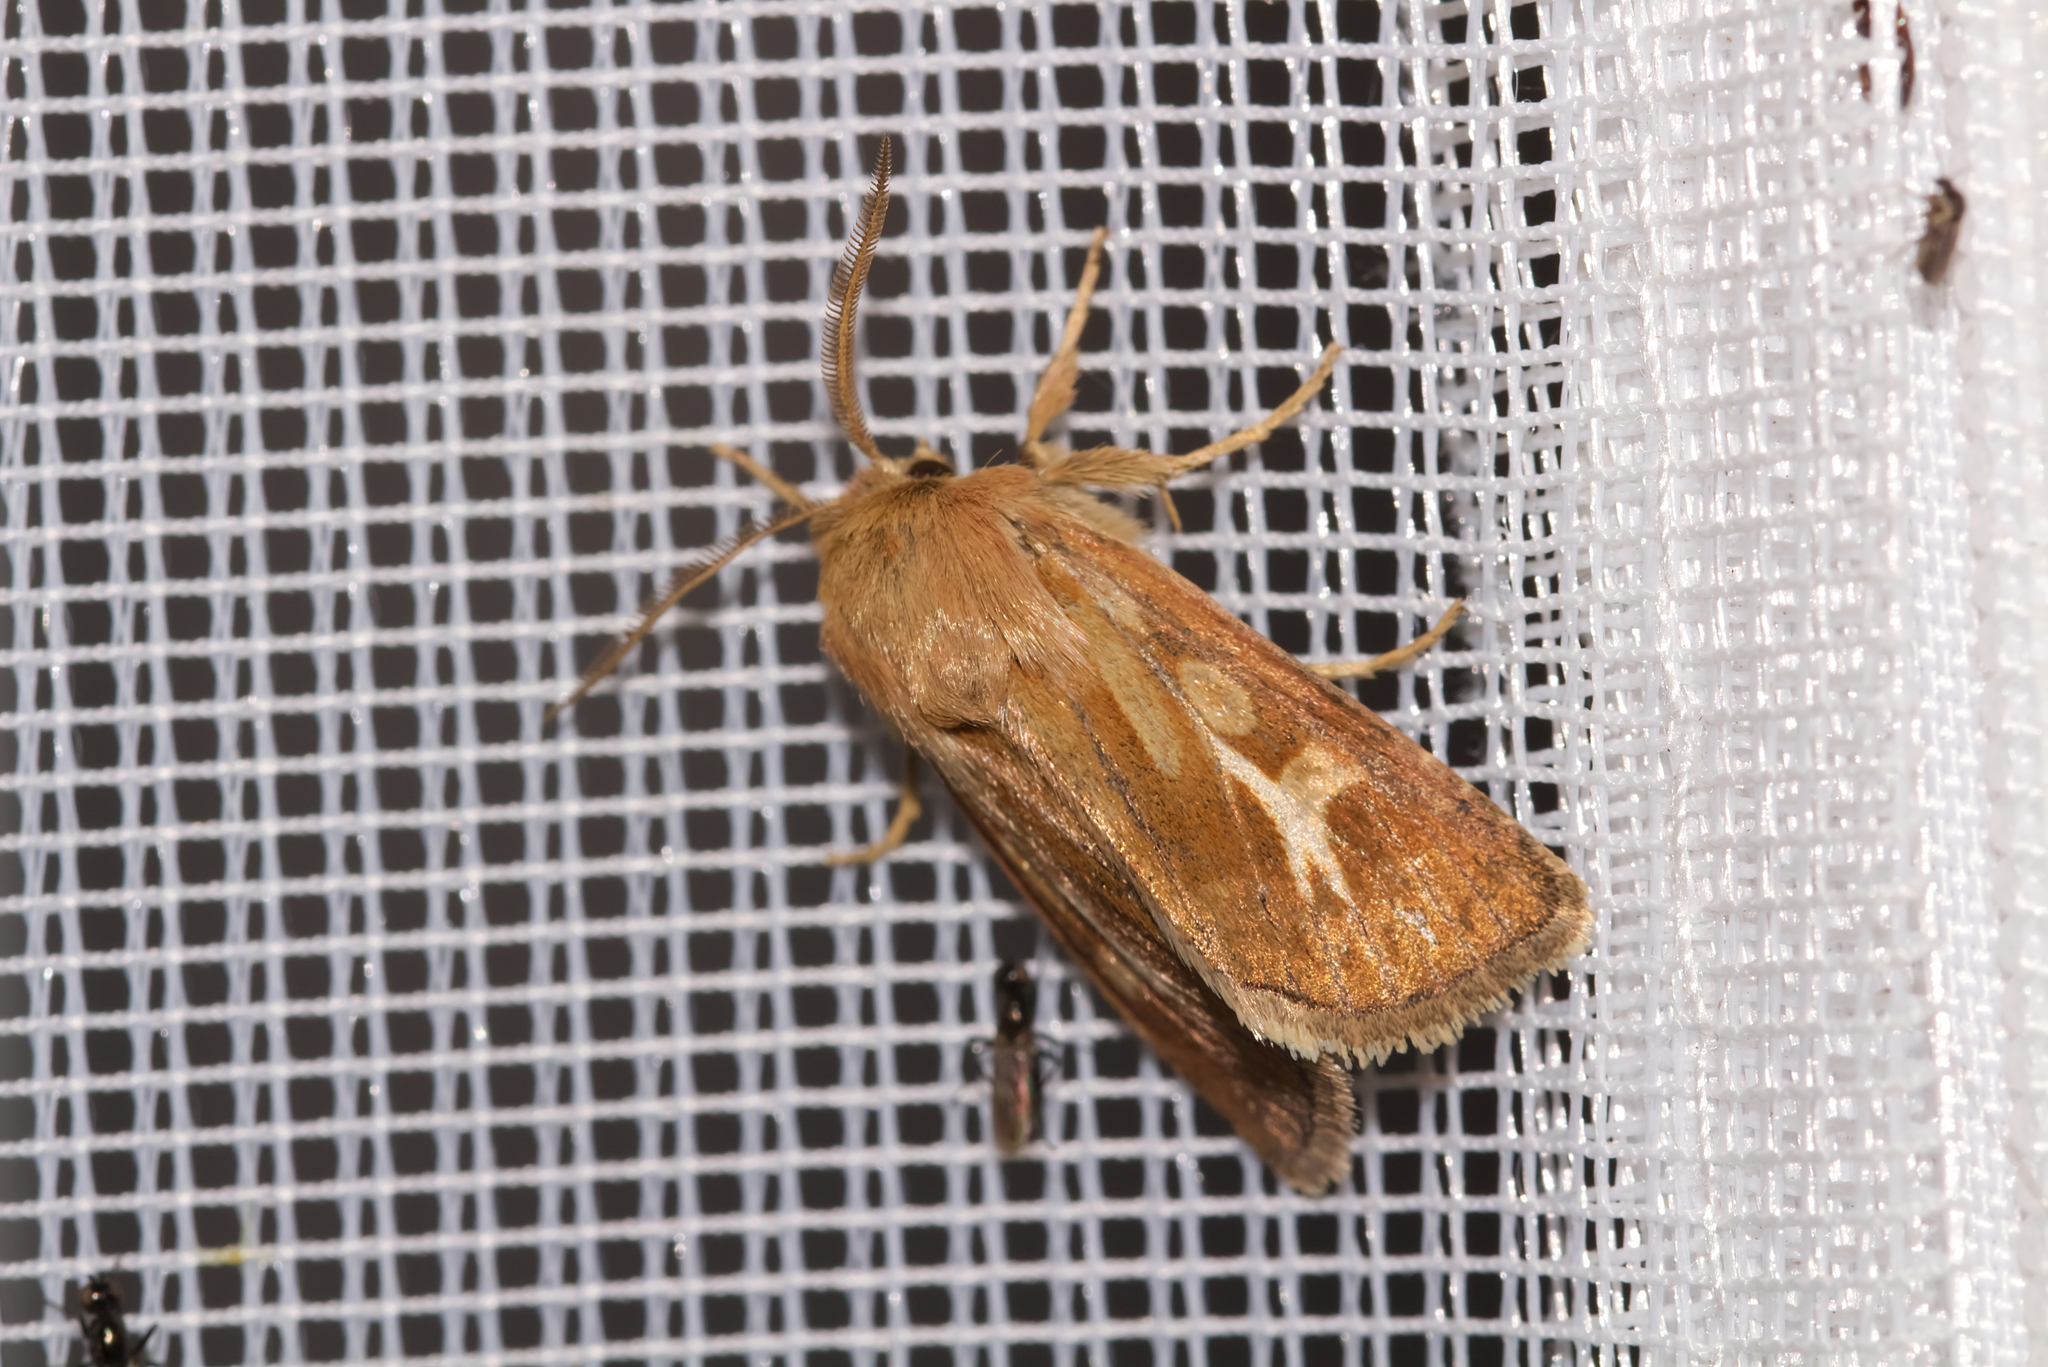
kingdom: Animalia
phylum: Arthropoda
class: Insecta
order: Lepidoptera
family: Noctuidae
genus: Cerapteryx
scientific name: Cerapteryx graminis
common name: Antler moth
